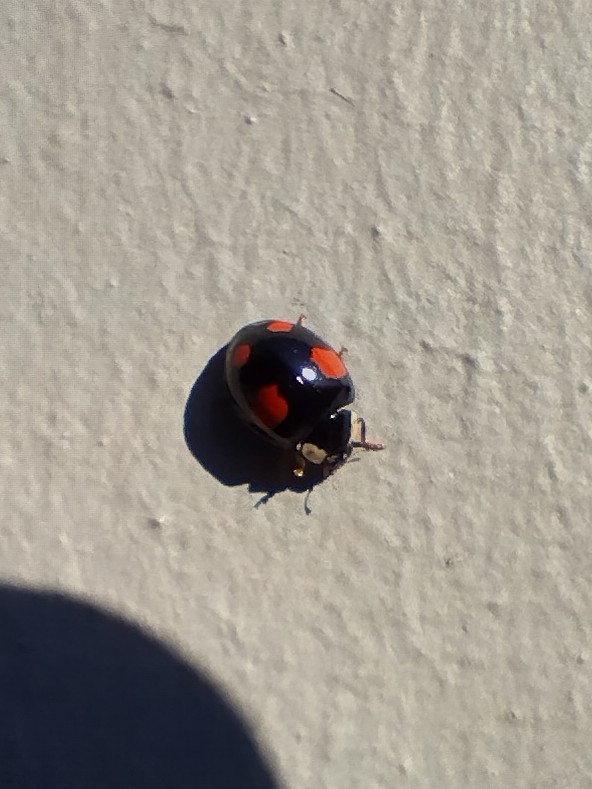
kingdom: Animalia
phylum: Arthropoda
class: Insecta
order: Coleoptera
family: Coccinellidae
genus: Harmonia
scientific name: Harmonia axyridis
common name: Harlequin ladybird
